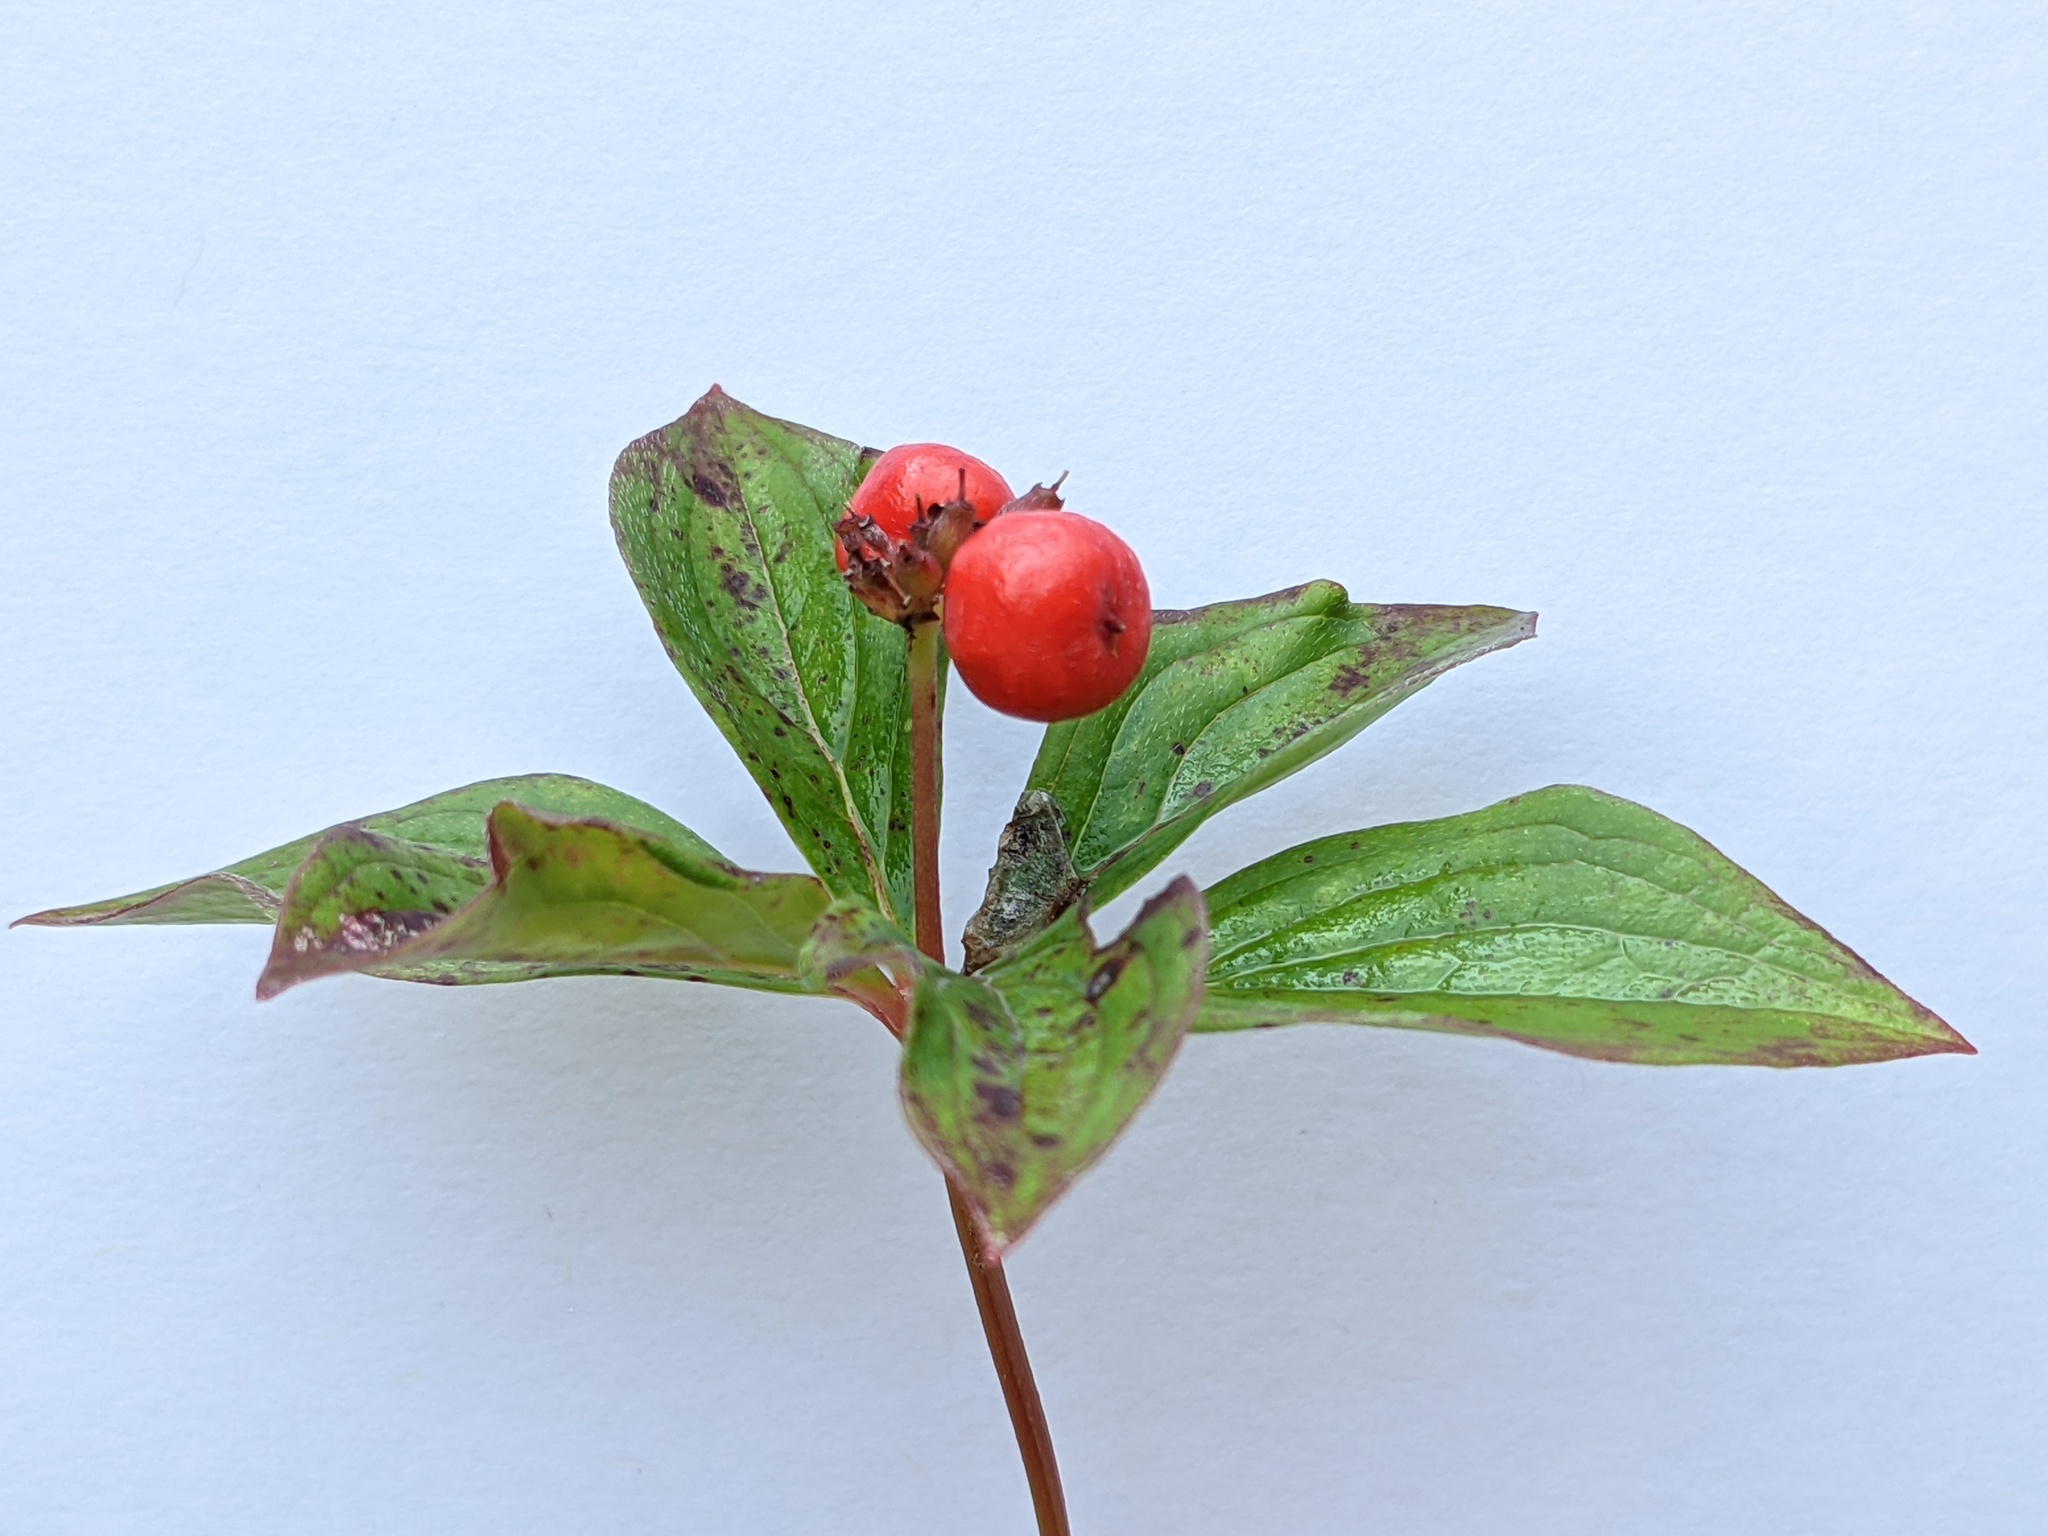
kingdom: Plantae
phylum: Tracheophyta
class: Magnoliopsida
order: Cornales
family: Cornaceae
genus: Cornus
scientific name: Cornus canadensis
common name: Creeping dogwood
